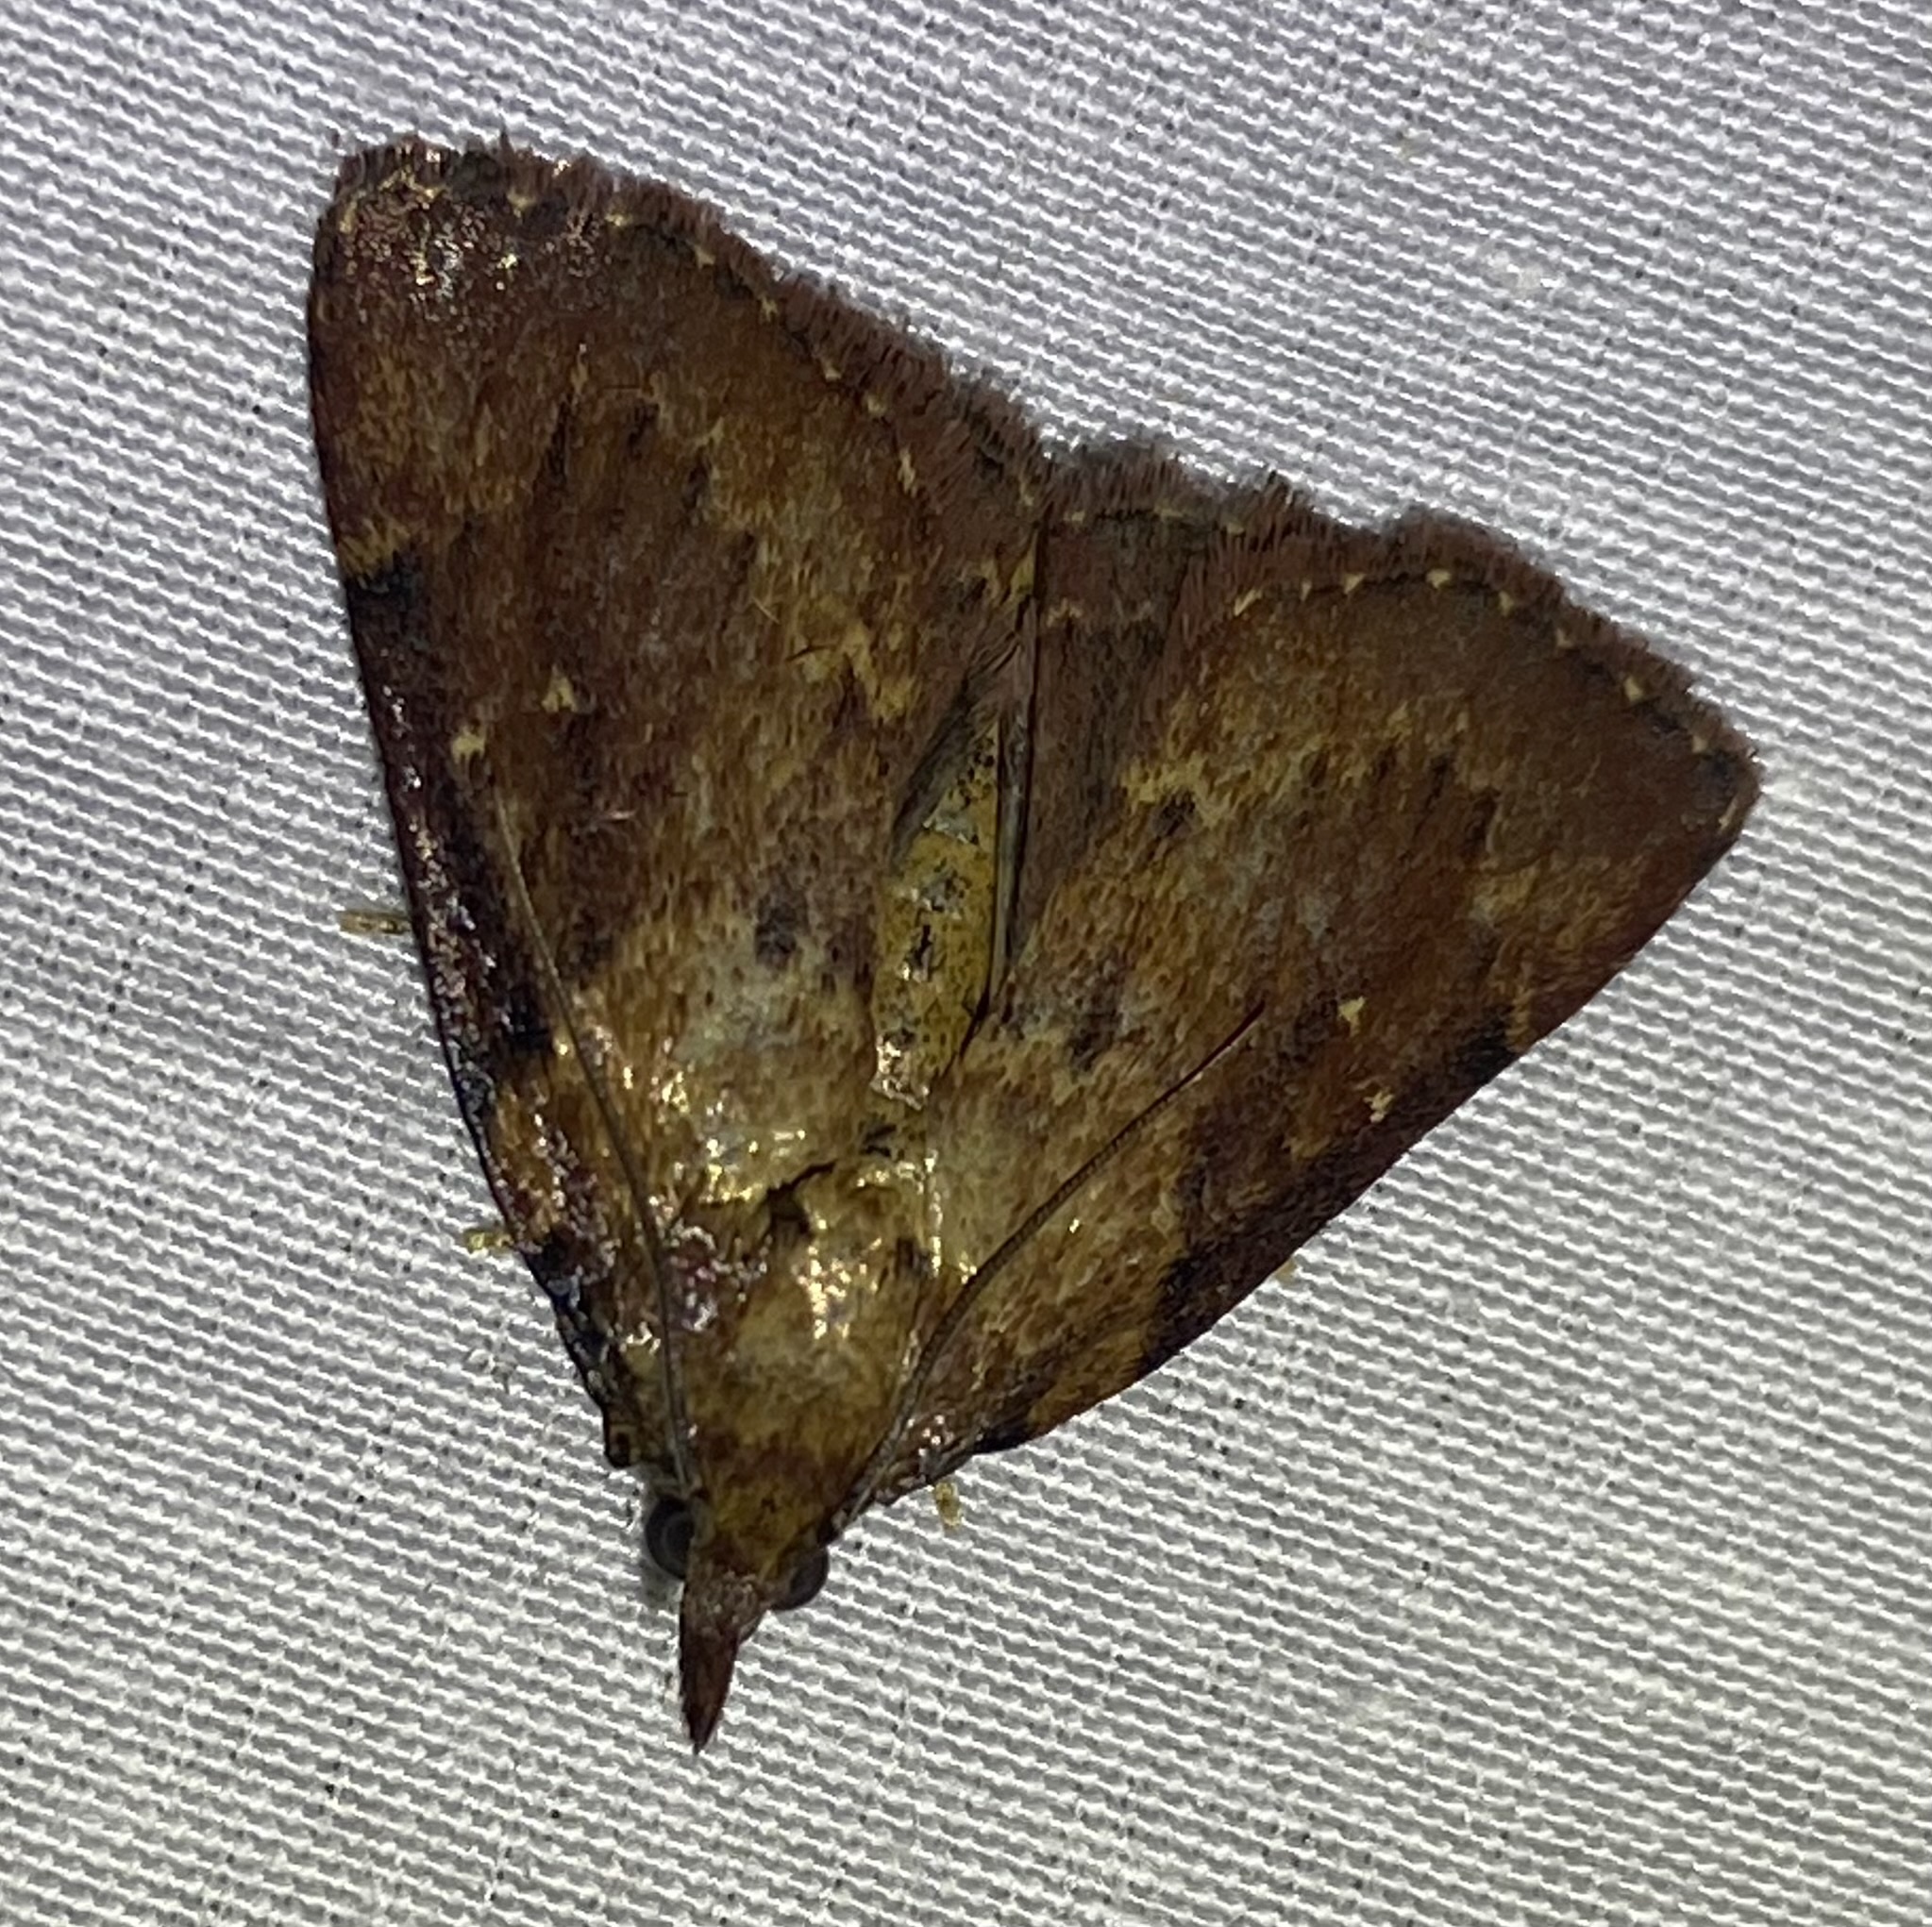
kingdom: Animalia
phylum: Arthropoda
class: Insecta
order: Lepidoptera
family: Pyralidae
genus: Omphalocera
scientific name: Omphalocera munroei
